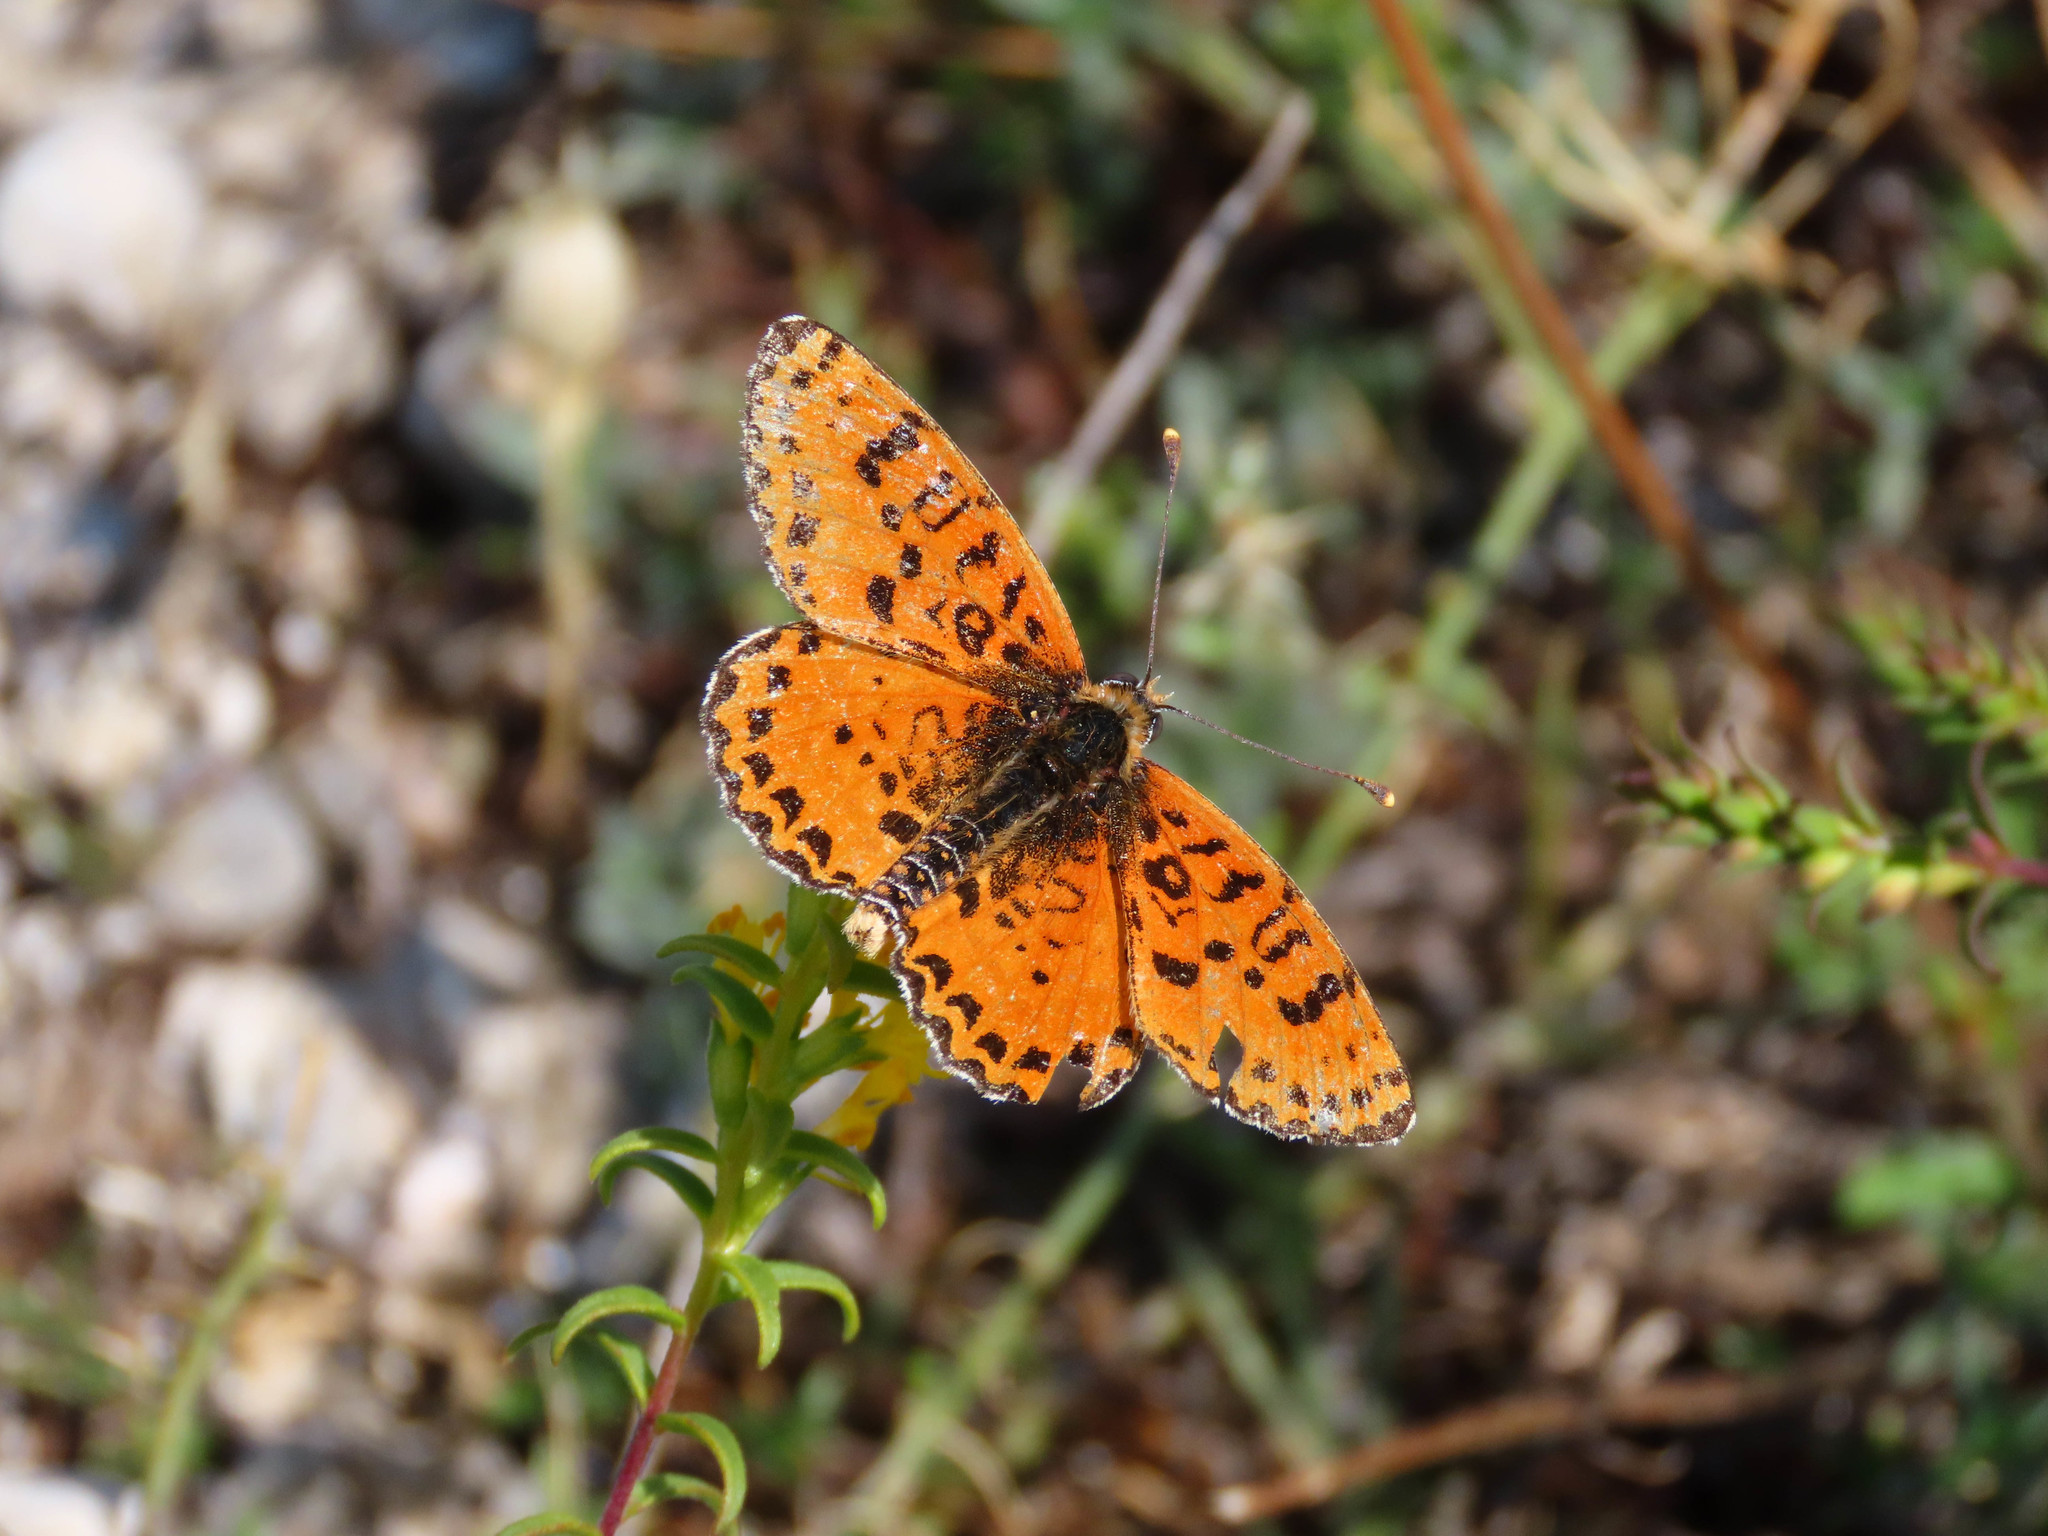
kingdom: Animalia
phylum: Arthropoda
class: Insecta
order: Lepidoptera
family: Nymphalidae
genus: Melitaea
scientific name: Melitaea didyma
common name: Spotted fritillary
